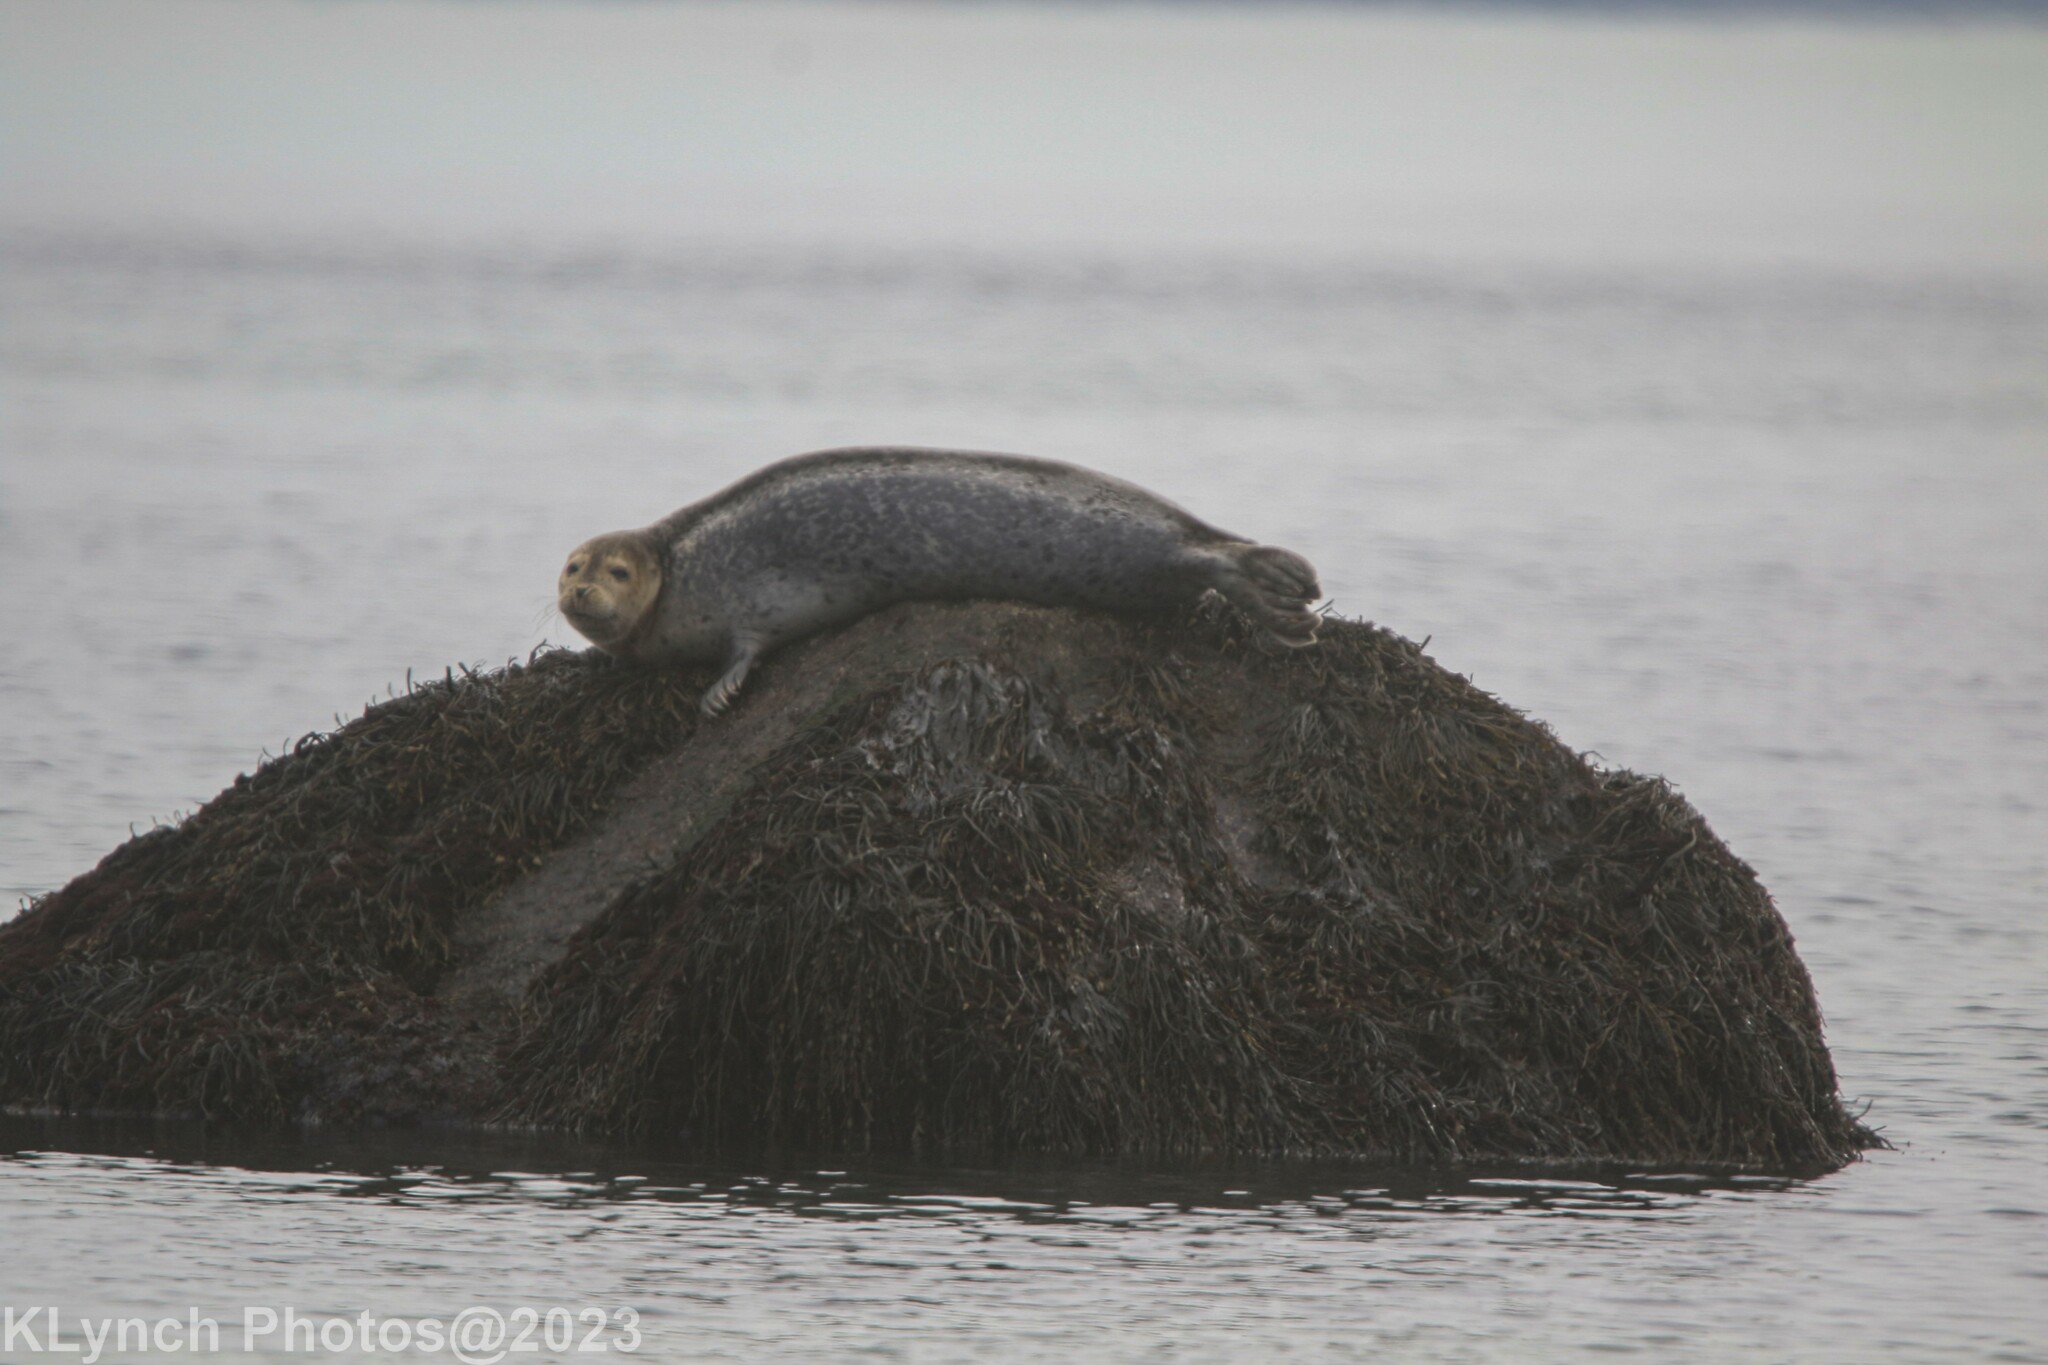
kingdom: Animalia
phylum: Chordata
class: Mammalia
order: Carnivora
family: Phocidae
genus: Phoca
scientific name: Phoca vitulina
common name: Harbor seal
